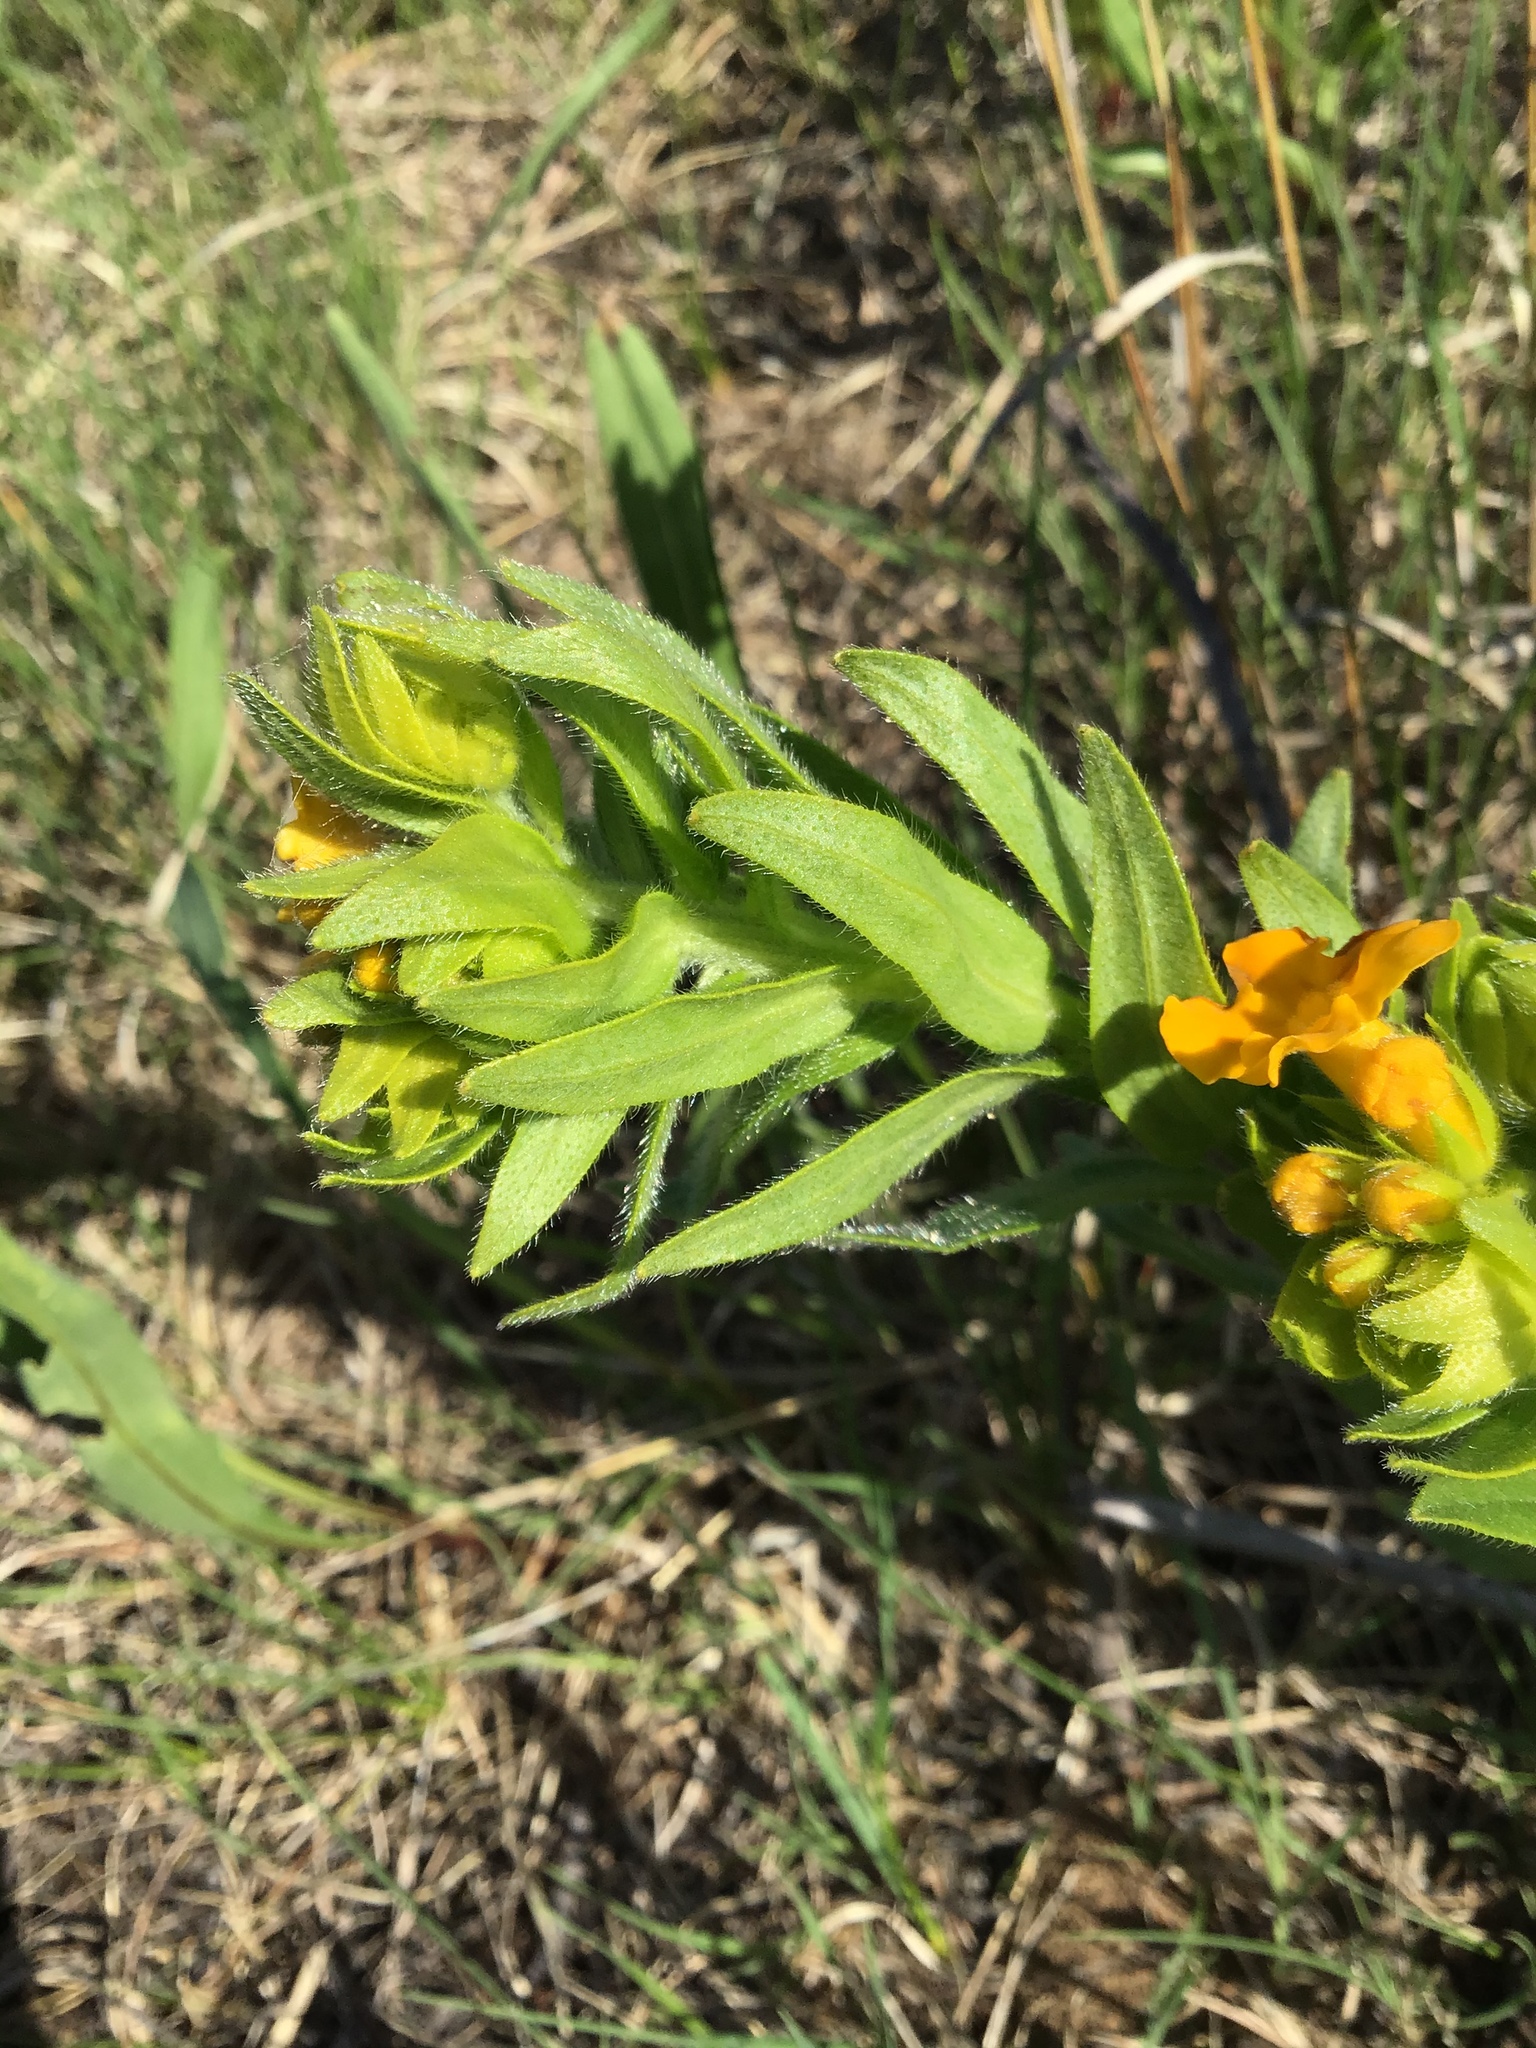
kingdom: Plantae
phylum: Tracheophyta
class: Magnoliopsida
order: Boraginales
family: Boraginaceae
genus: Lithospermum
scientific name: Lithospermum caroliniense
